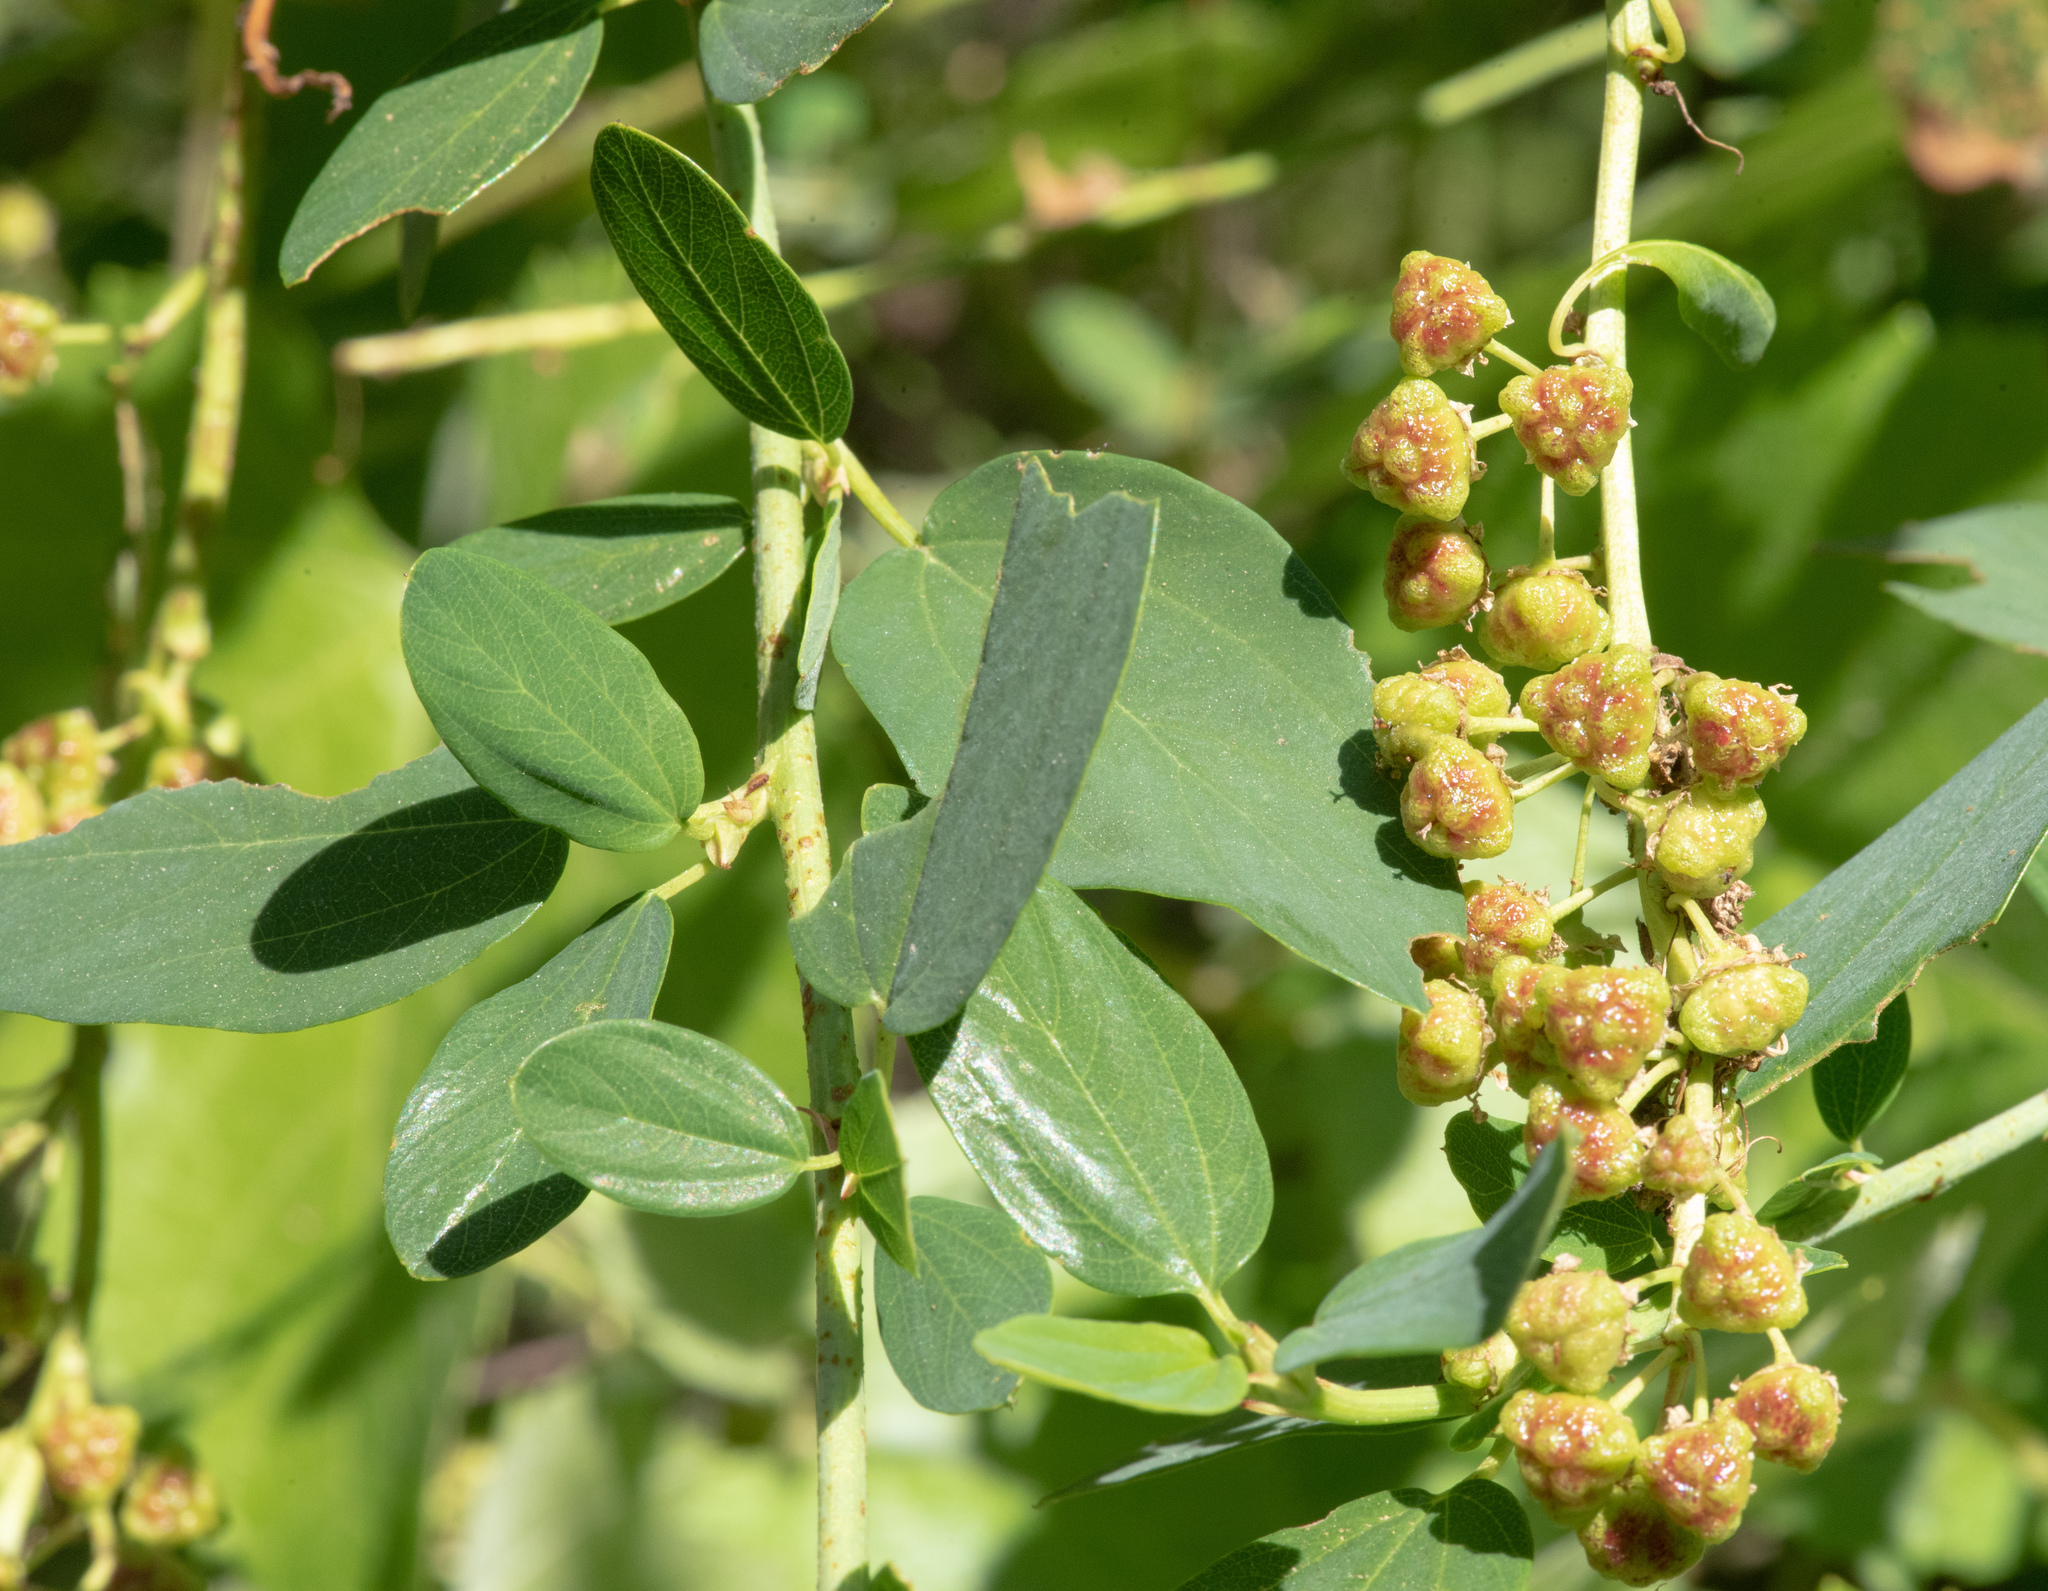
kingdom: Plantae
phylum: Tracheophyta
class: Magnoliopsida
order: Rosales
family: Rhamnaceae
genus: Ceanothus
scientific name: Ceanothus integerrimus
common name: Deerbrush ceanothus
